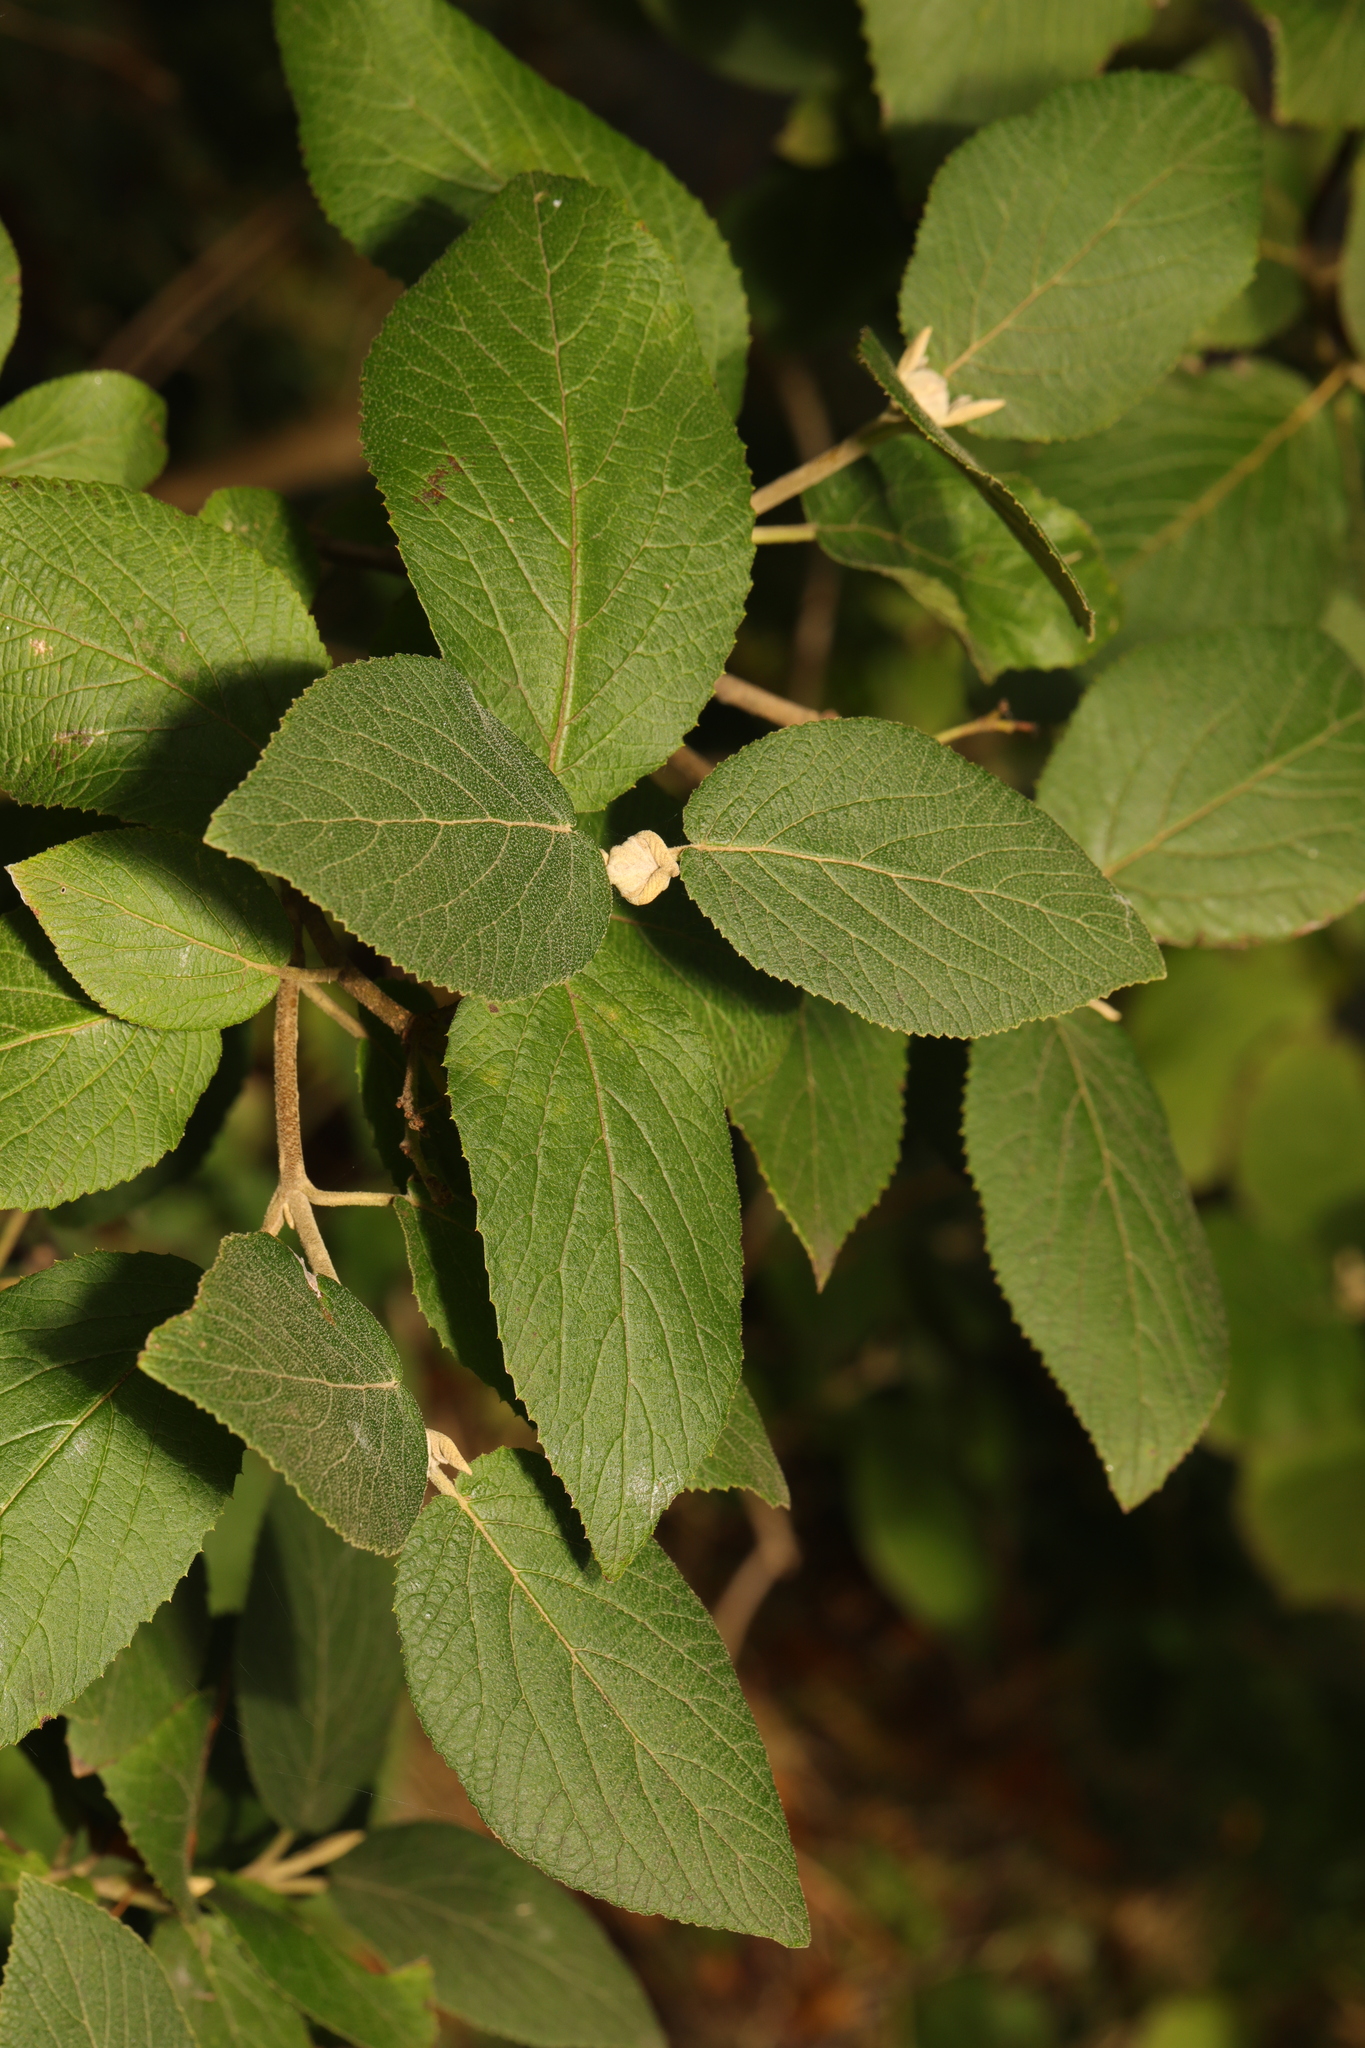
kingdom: Plantae
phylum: Tracheophyta
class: Magnoliopsida
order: Dipsacales
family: Viburnaceae
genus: Viburnum
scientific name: Viburnum lantana
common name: Wayfaring tree
